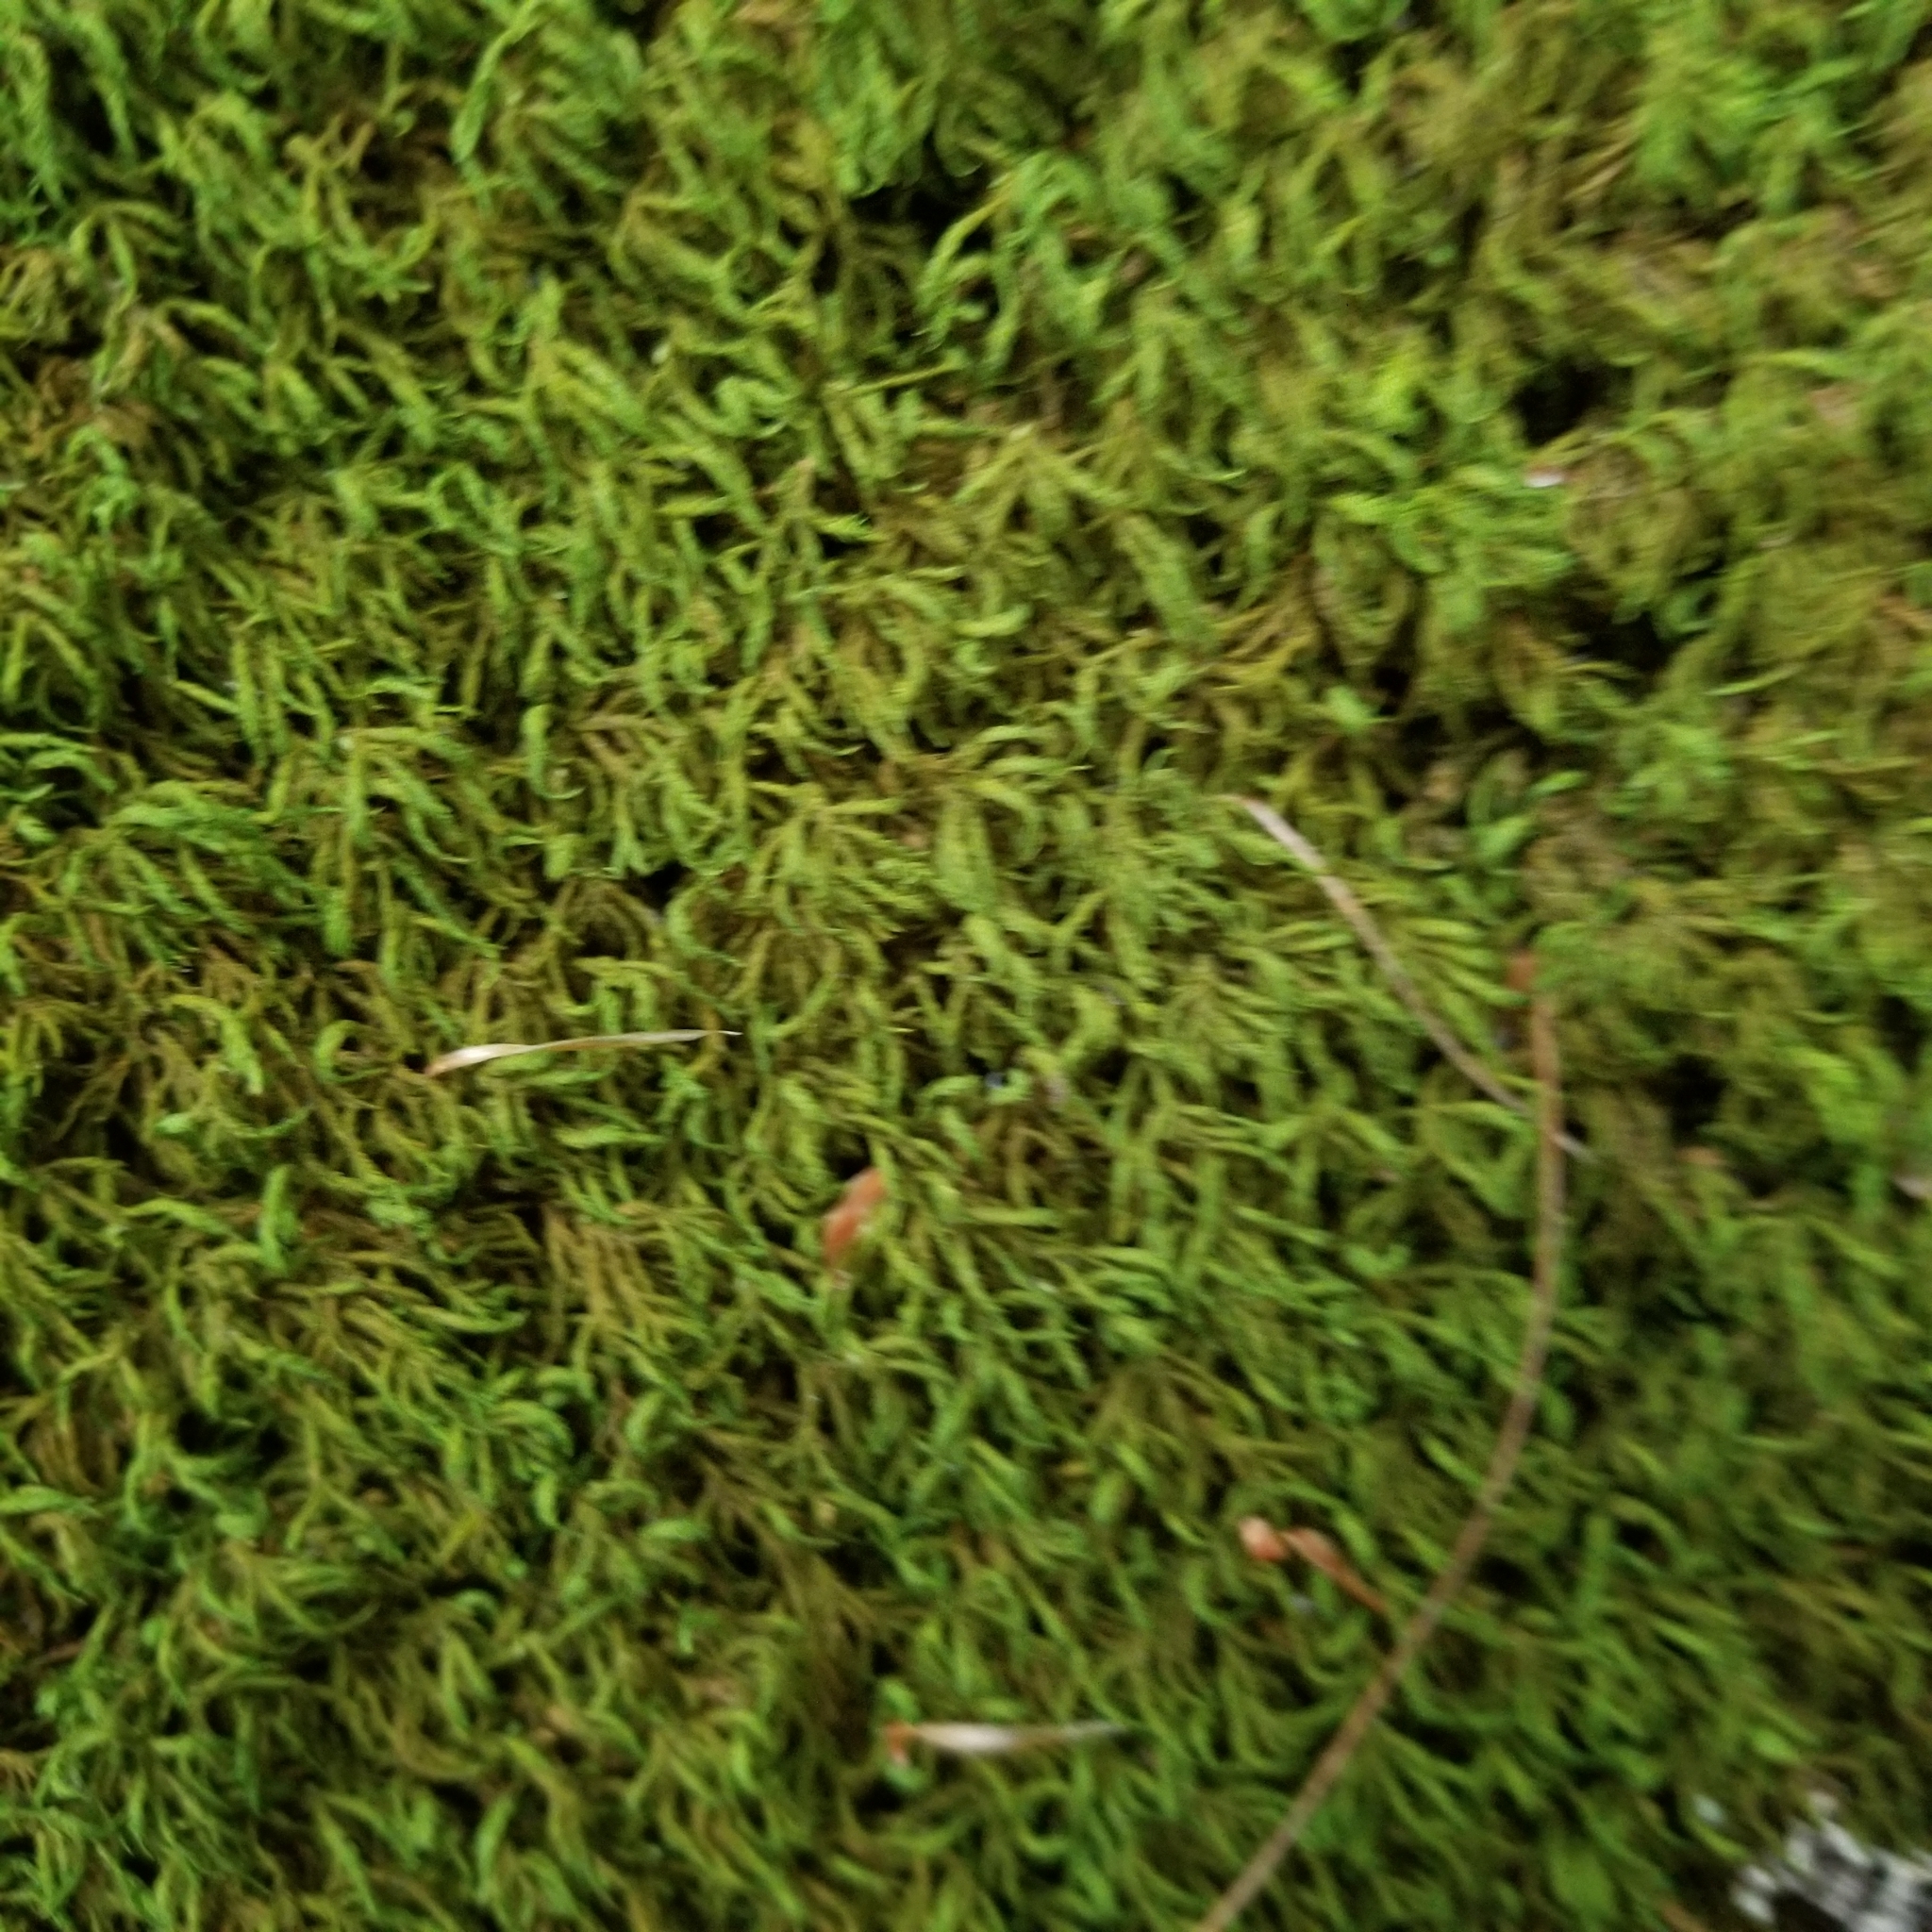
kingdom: Plantae
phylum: Bryophyta
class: Bryopsida
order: Hypnales
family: Neckeraceae
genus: Pseudanomodon
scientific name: Pseudanomodon attenuatus
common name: Tree-skirt moss
